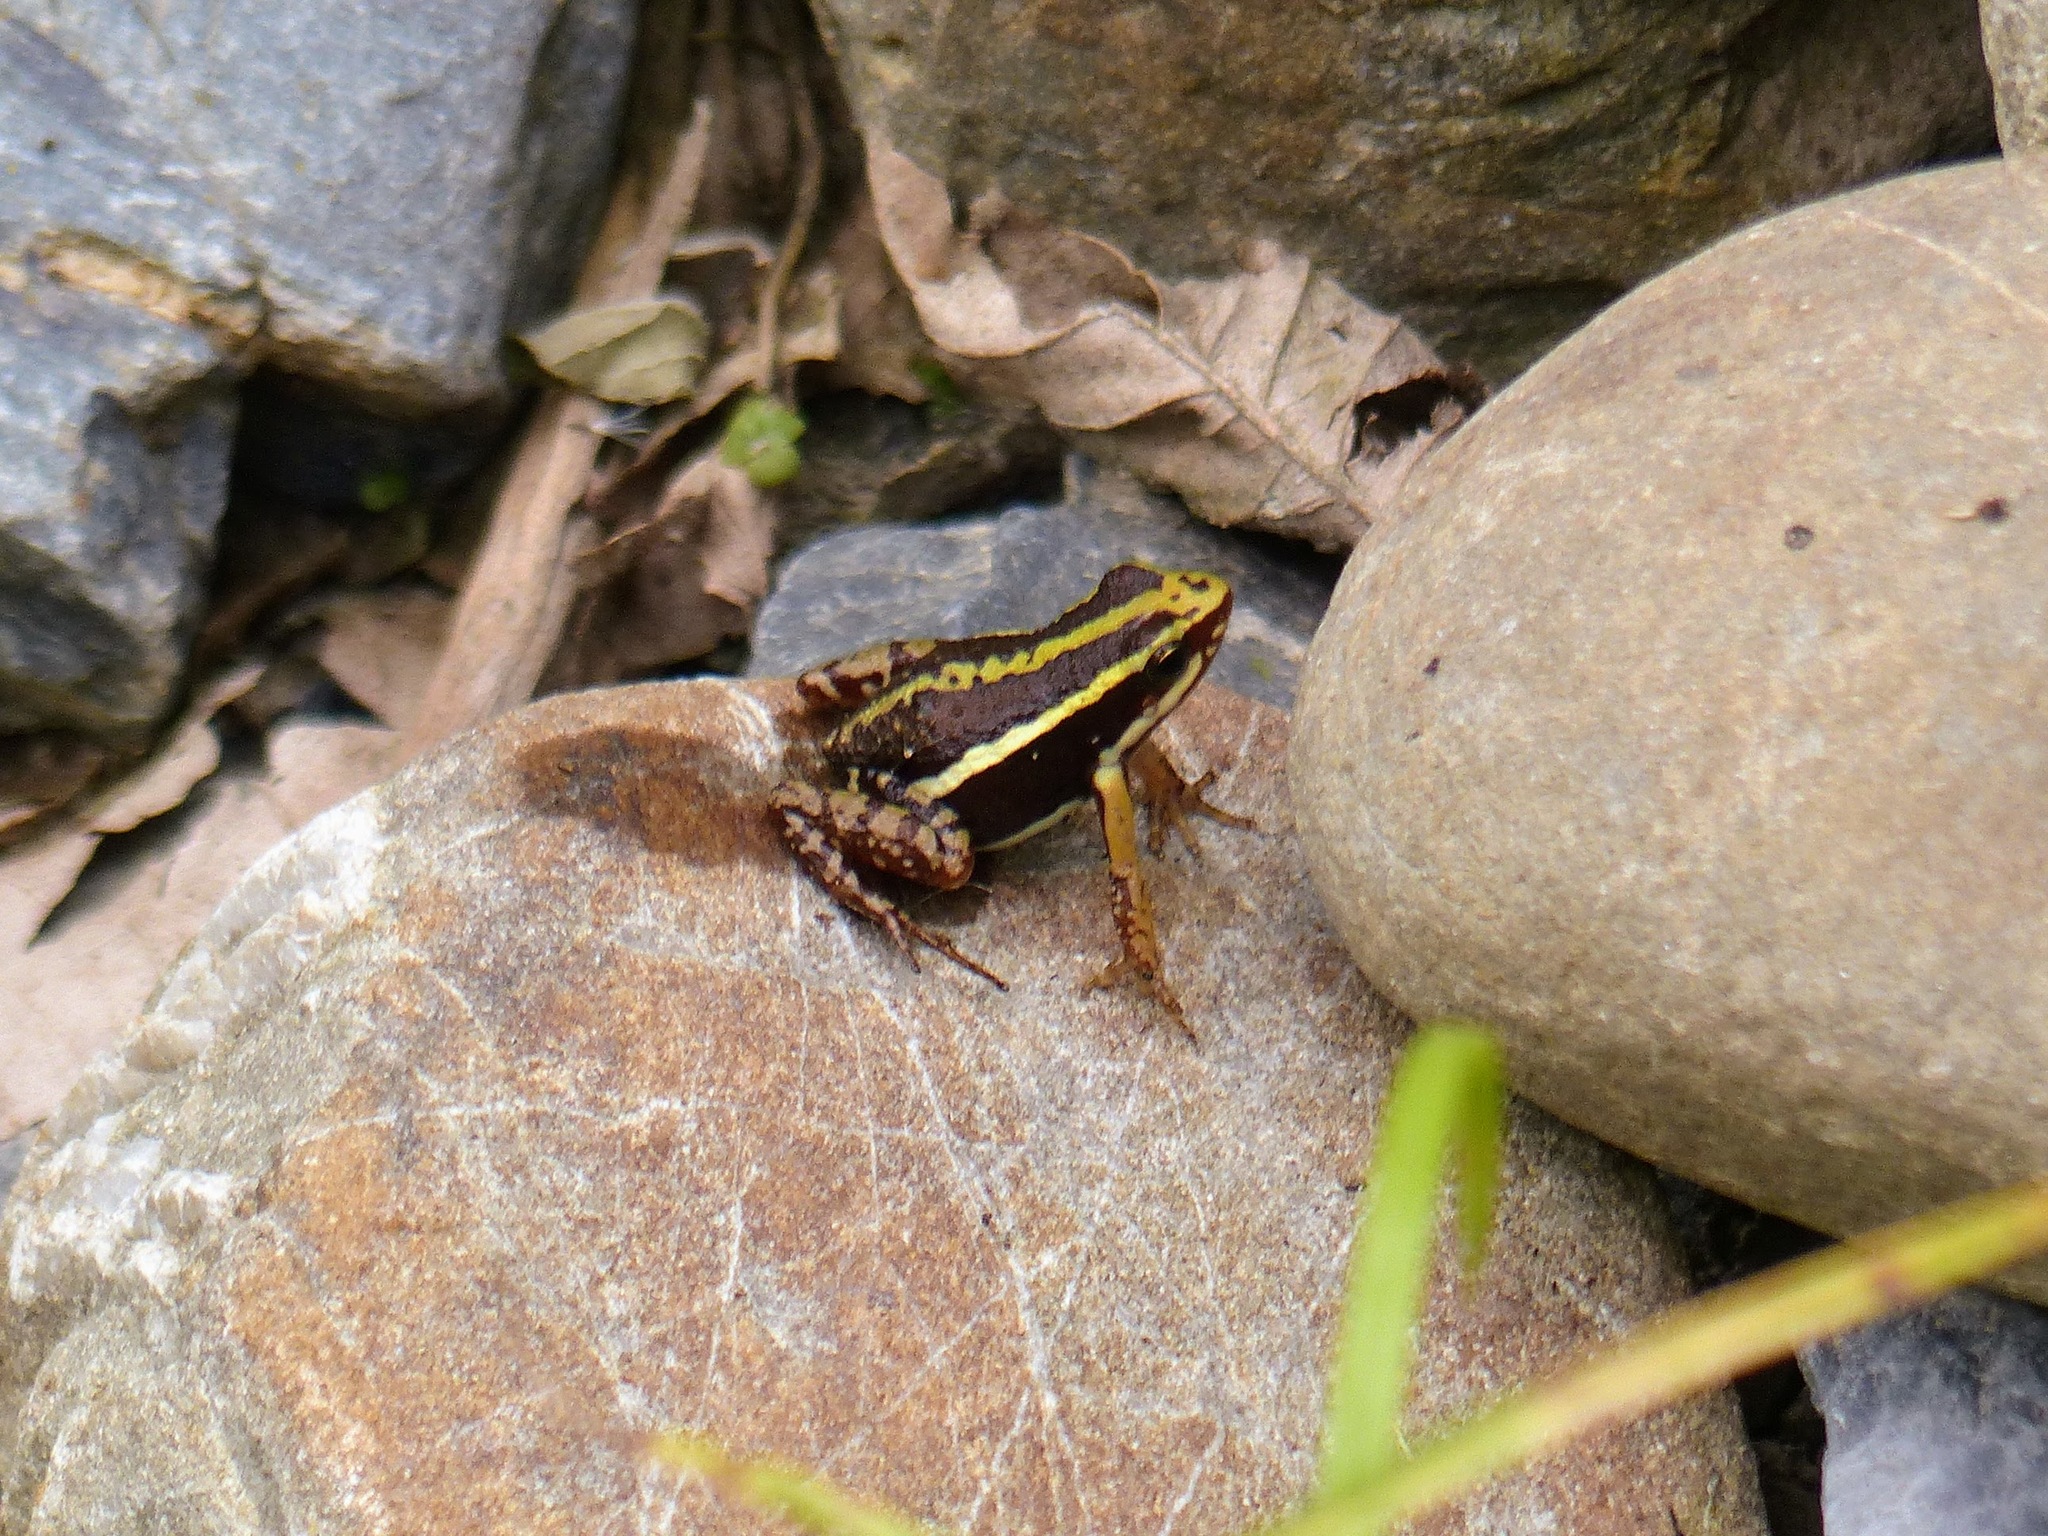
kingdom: Animalia
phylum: Chordata
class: Amphibia
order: Anura
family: Dendrobatidae
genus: Epipedobates
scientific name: Epipedobates anthonyi
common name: Anthony´s poison-arrow frog
